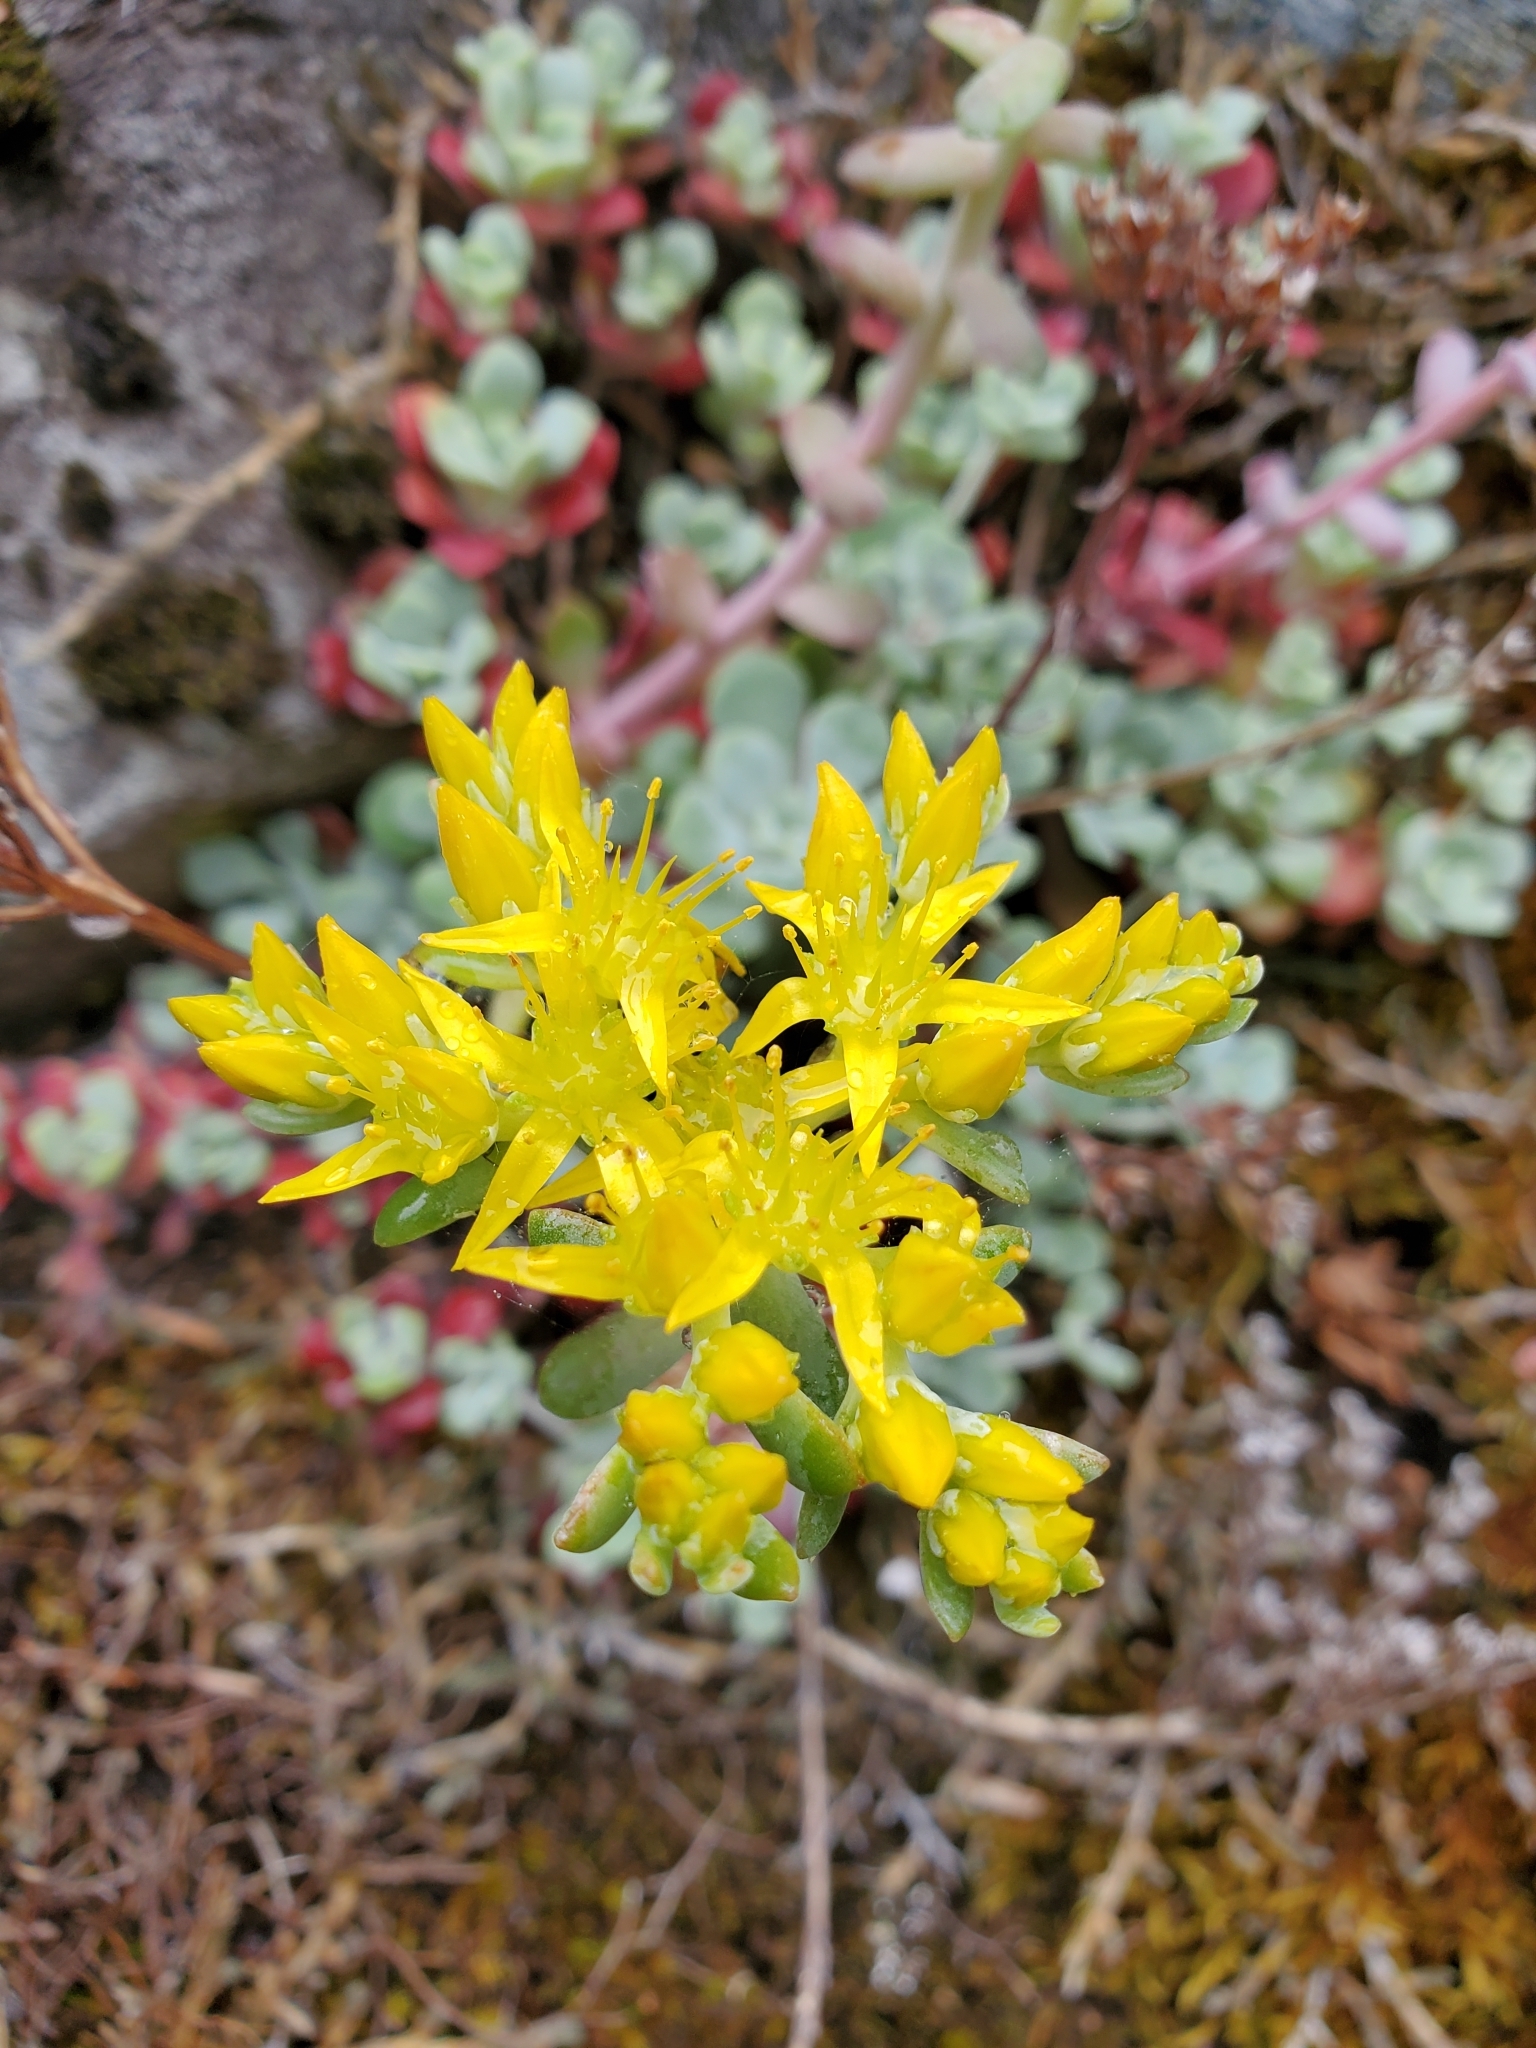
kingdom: Plantae
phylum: Tracheophyta
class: Magnoliopsida
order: Saxifragales
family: Crassulaceae
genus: Sedum
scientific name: Sedum spathulifolium
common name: Colorado stonecrop
